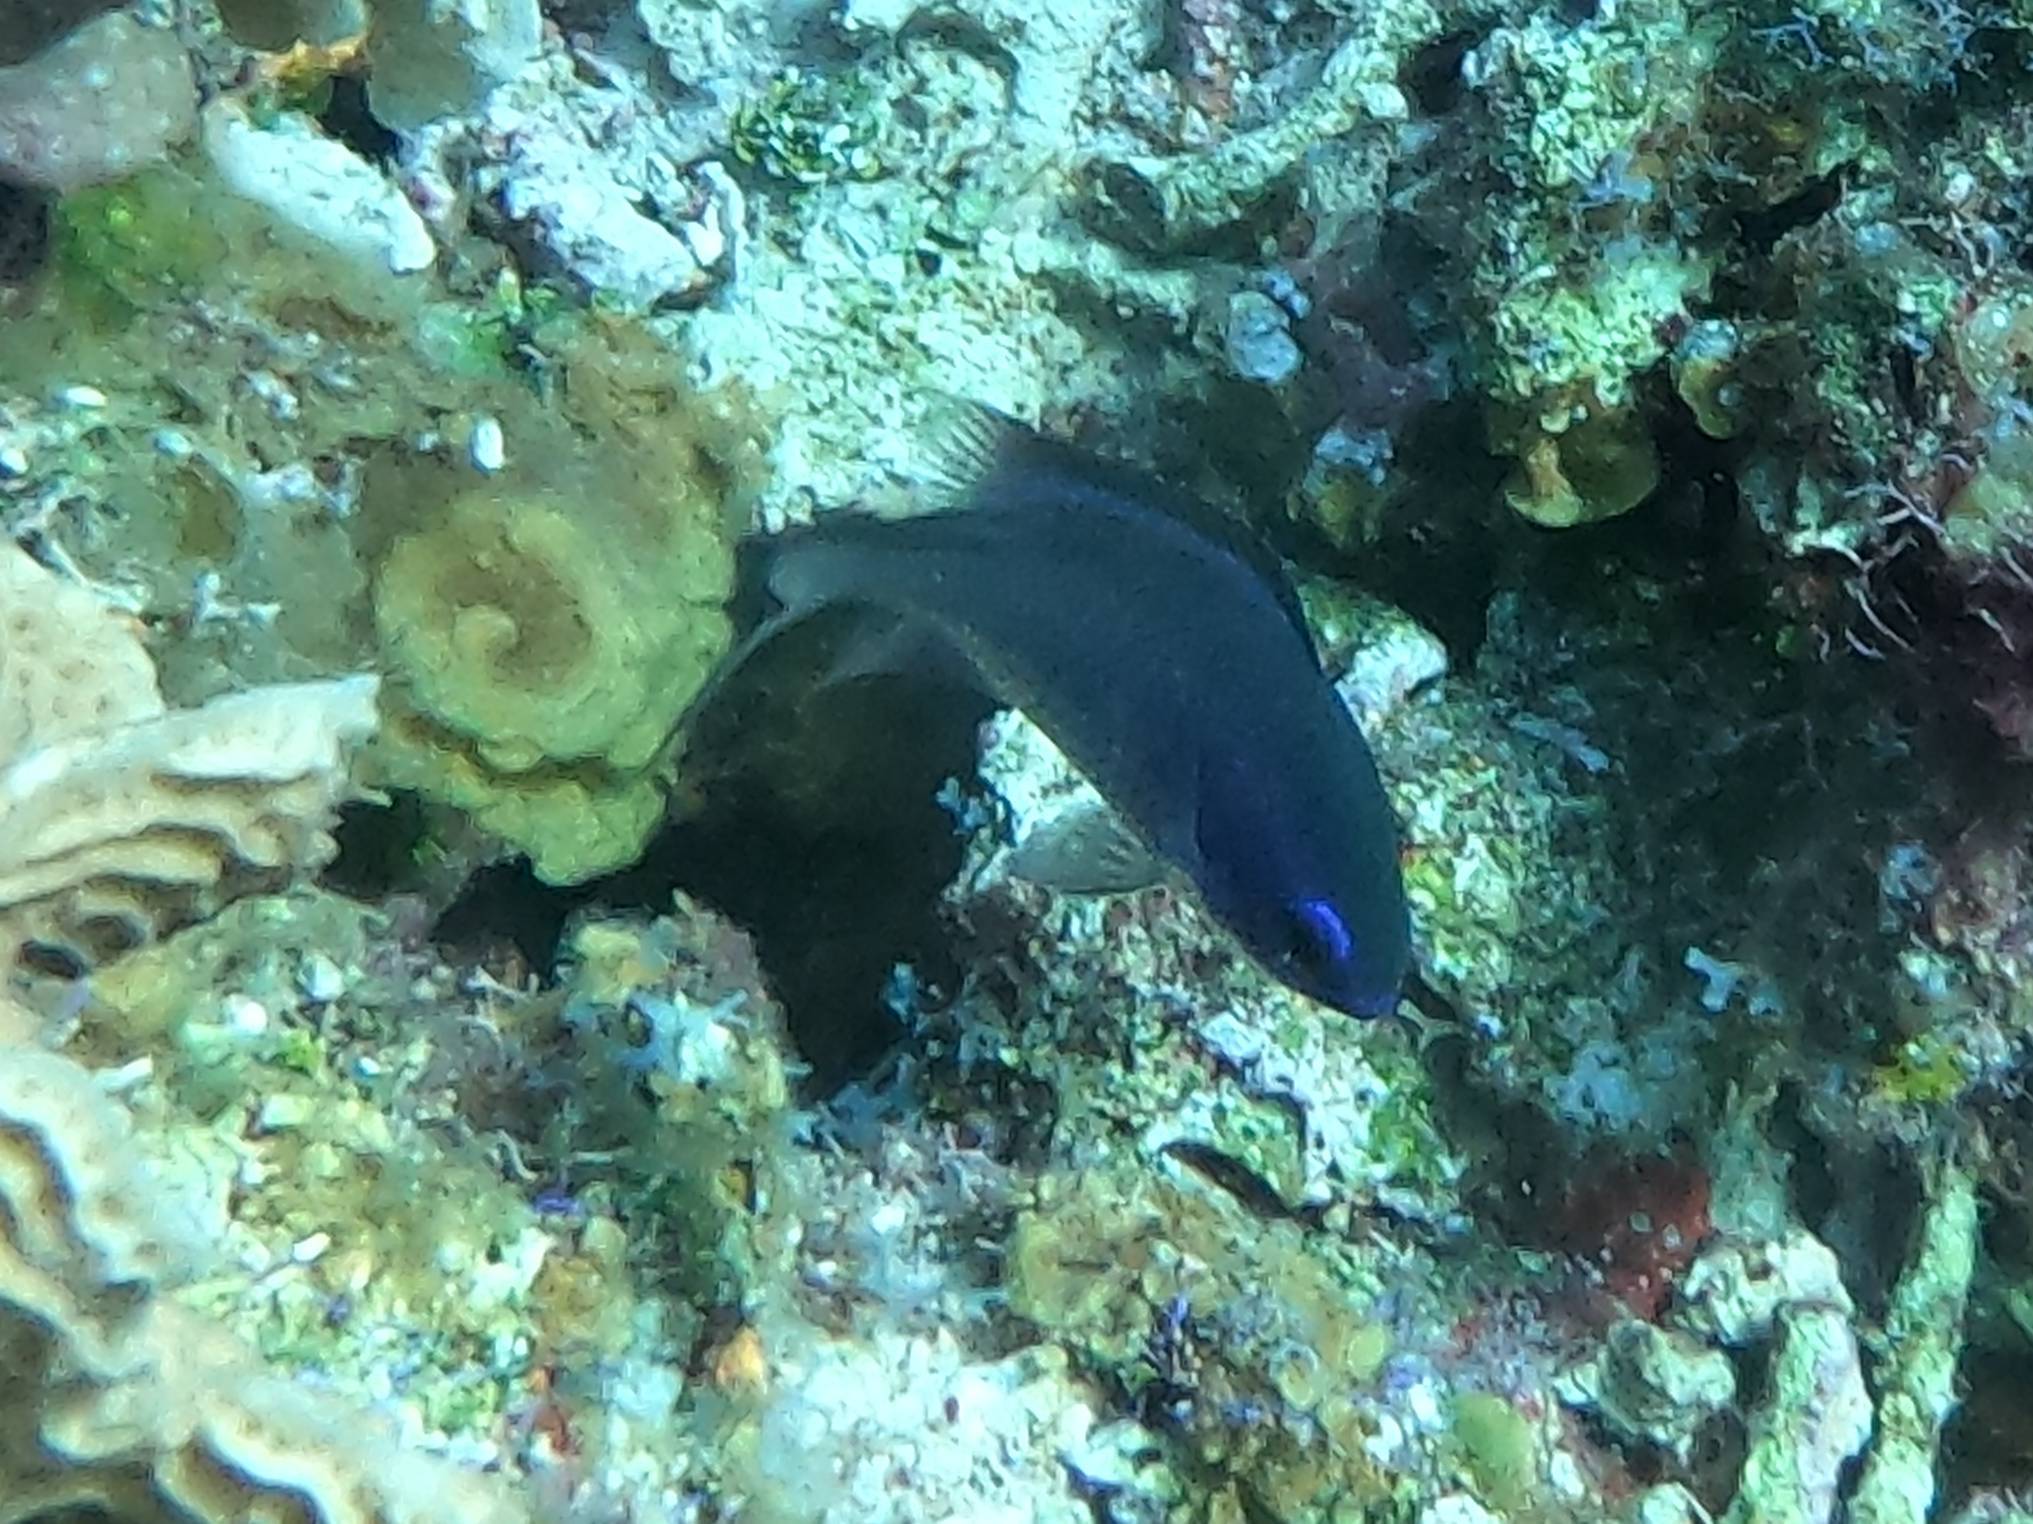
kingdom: Animalia
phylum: Chordata
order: Perciformes
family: Pomacentridae
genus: Chromis
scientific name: Chromis cyanea
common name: Blue chromis
